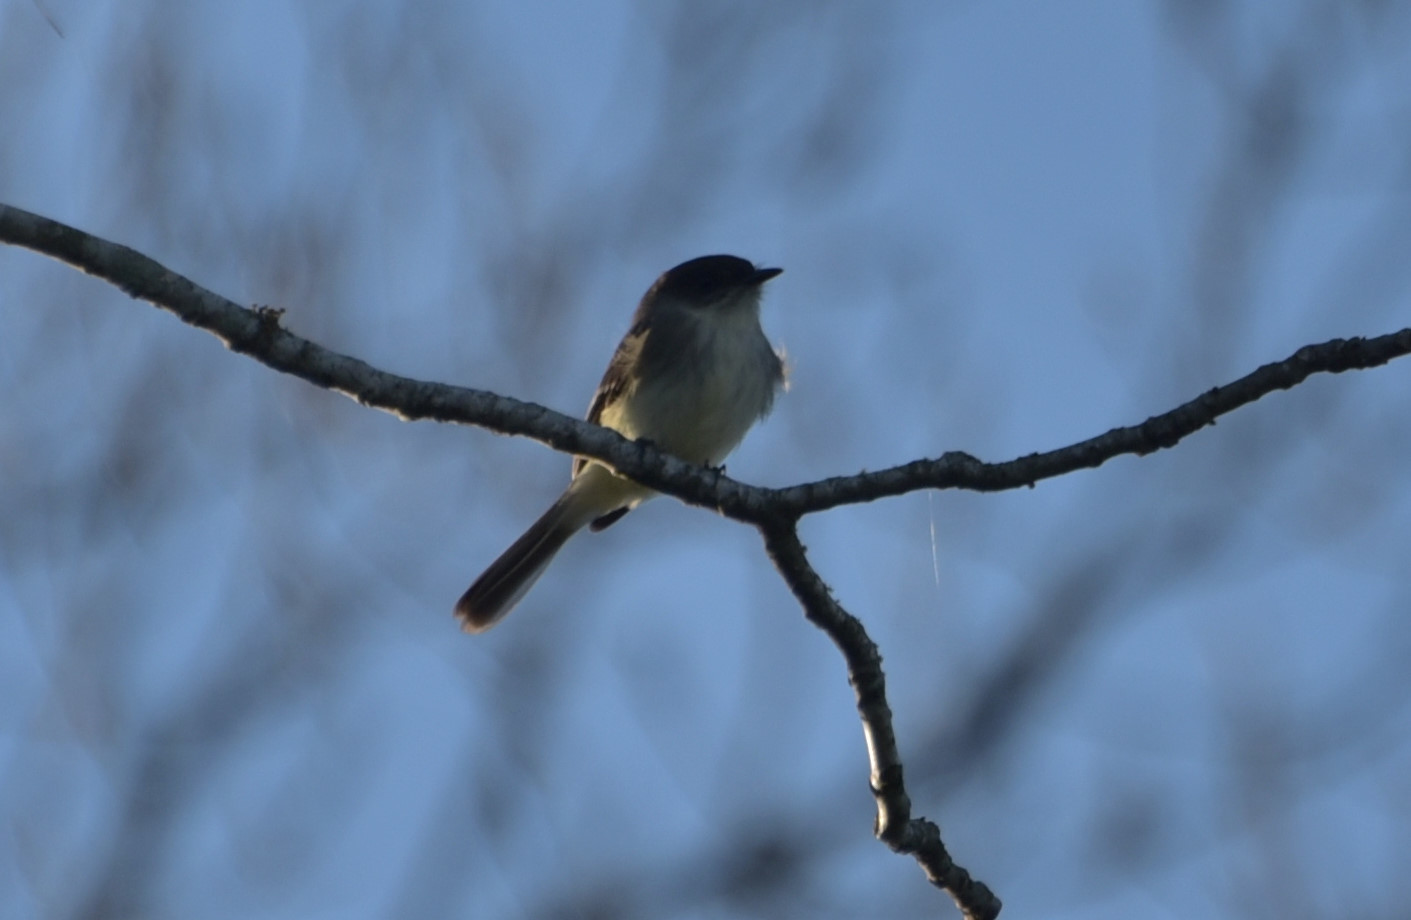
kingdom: Animalia
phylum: Chordata
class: Aves
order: Passeriformes
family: Tyrannidae
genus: Sayornis
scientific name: Sayornis phoebe
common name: Eastern phoebe
